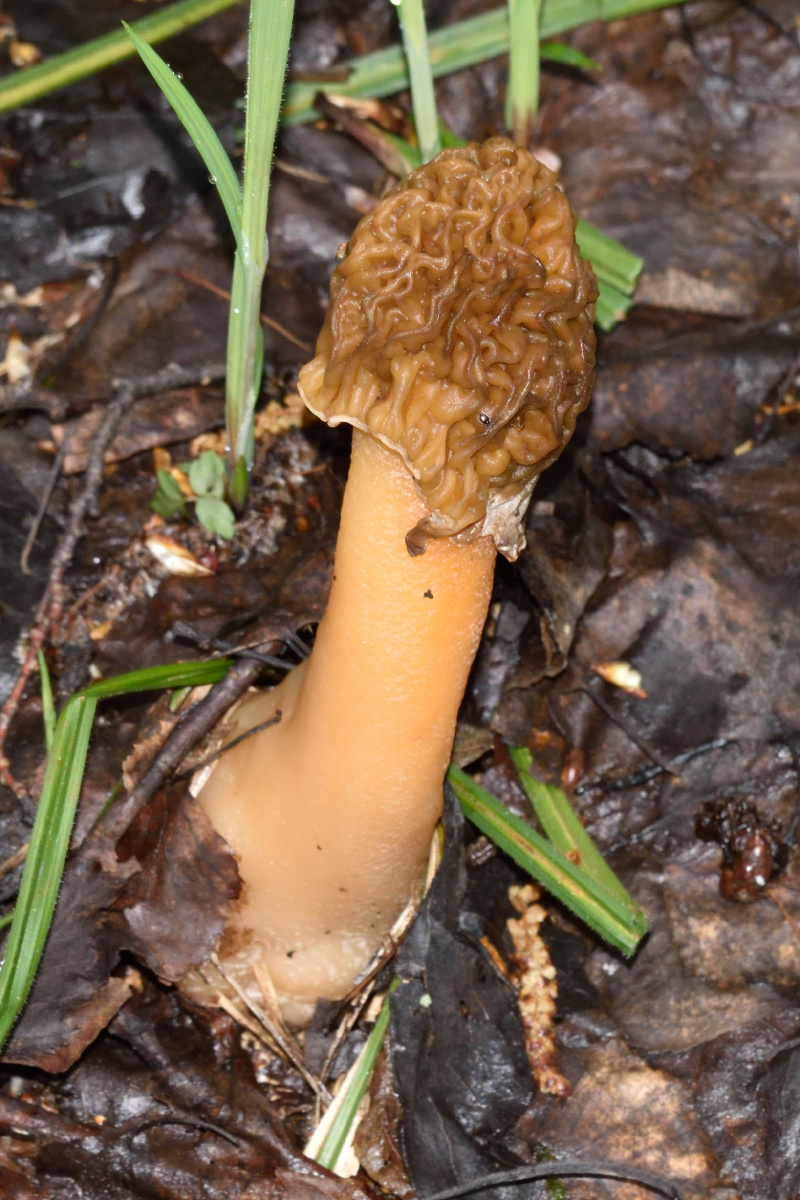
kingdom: Fungi
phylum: Ascomycota
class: Pezizomycetes
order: Pezizales
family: Morchellaceae
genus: Verpa
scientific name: Verpa bohemica
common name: Wrinkled thimble morel
